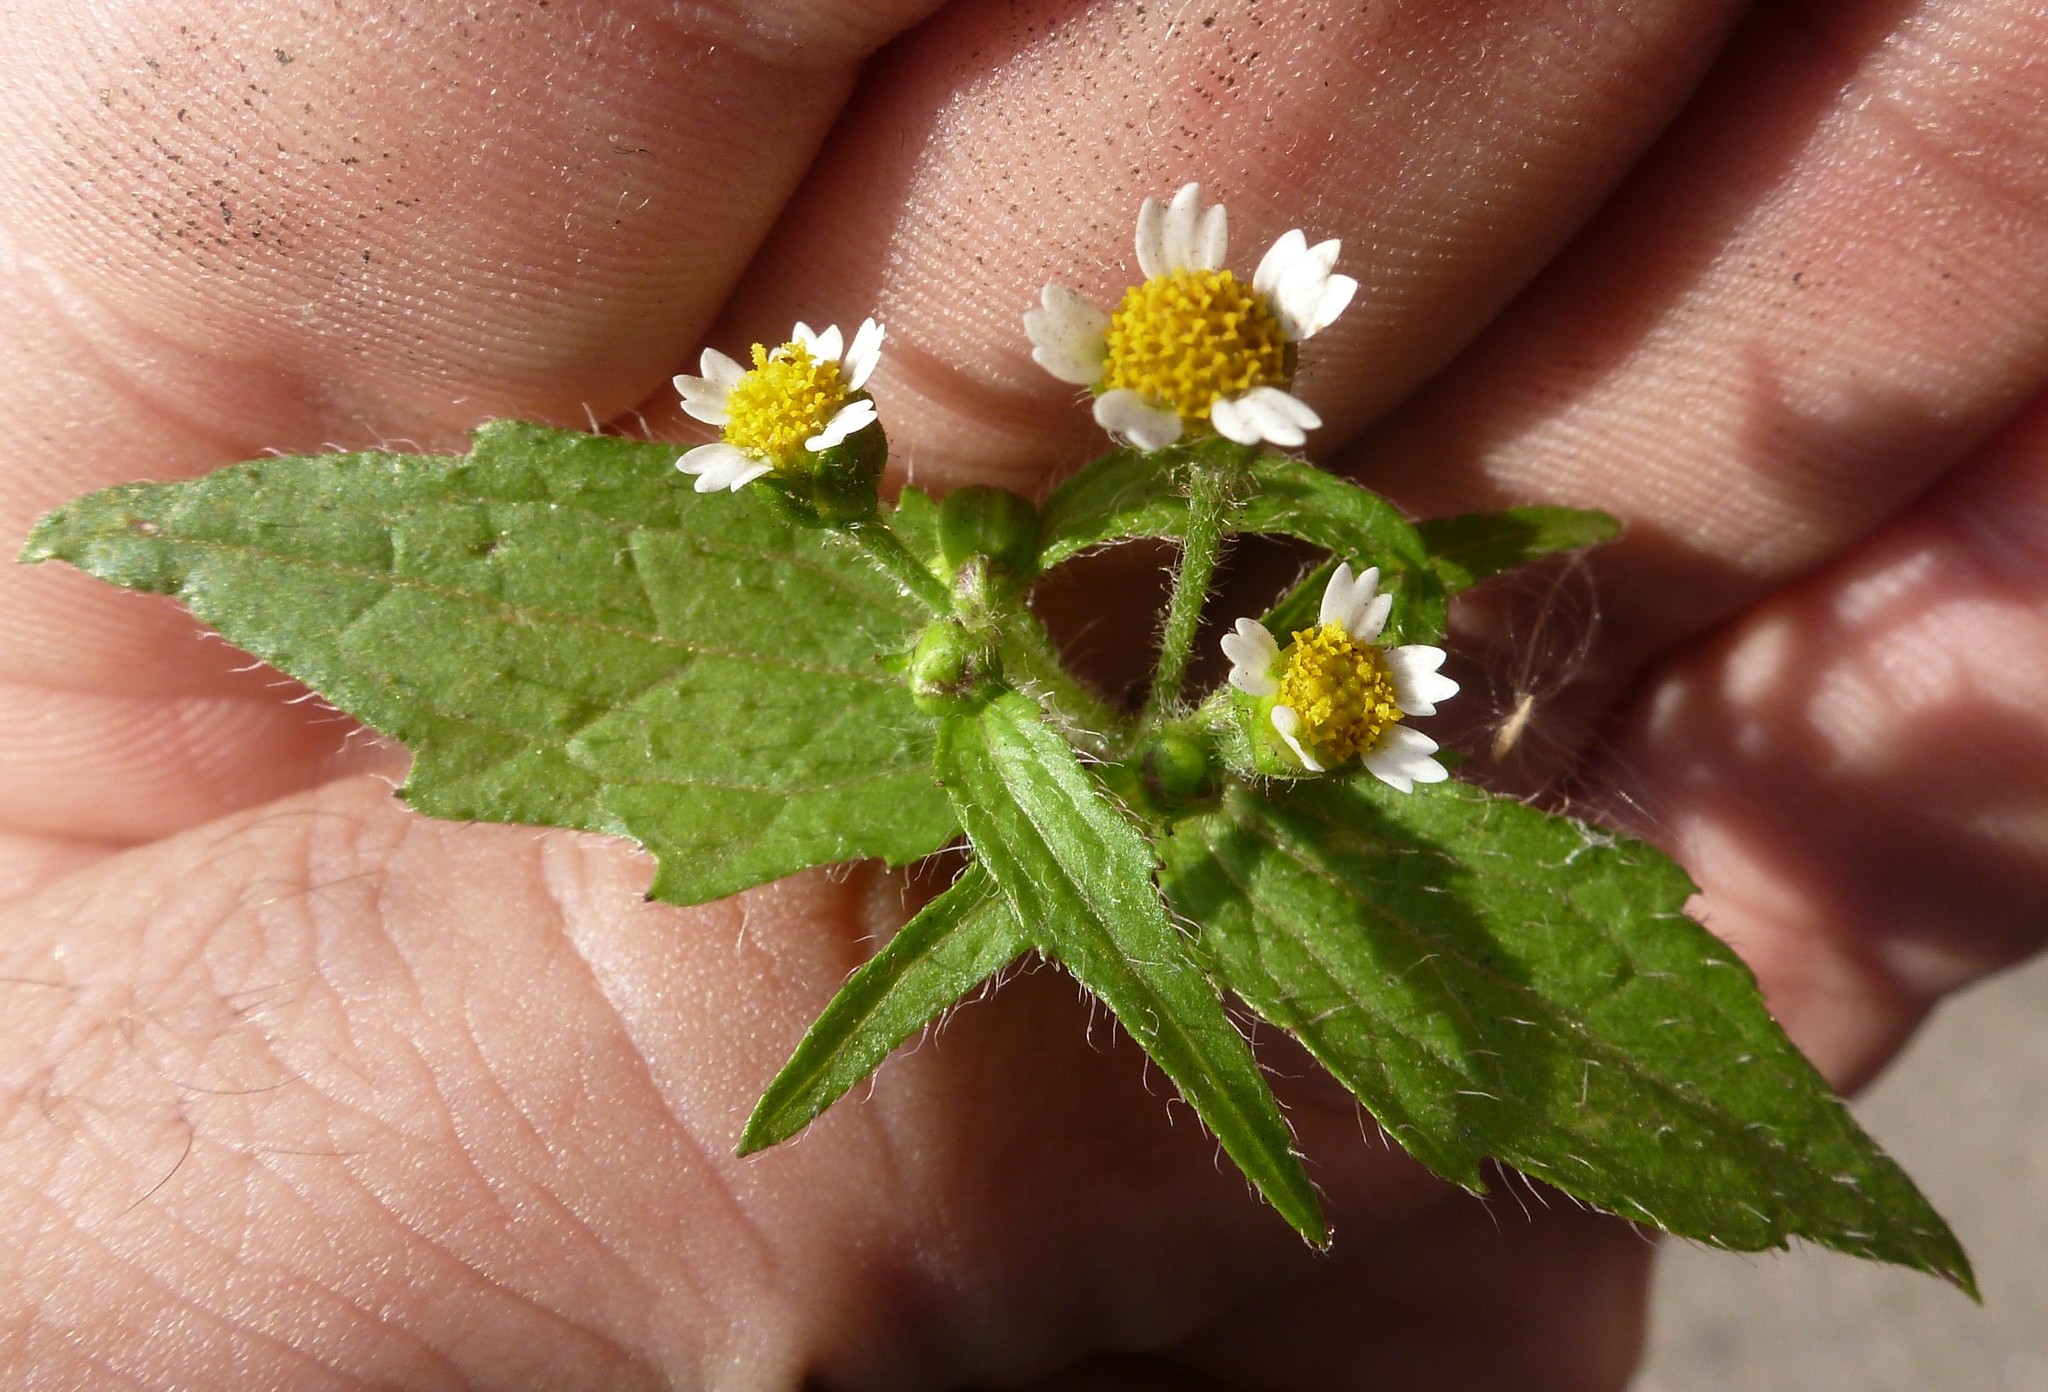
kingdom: Plantae
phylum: Tracheophyta
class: Magnoliopsida
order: Asterales
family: Asteraceae
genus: Galinsoga
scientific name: Galinsoga quadriradiata
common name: Shaggy soldier
